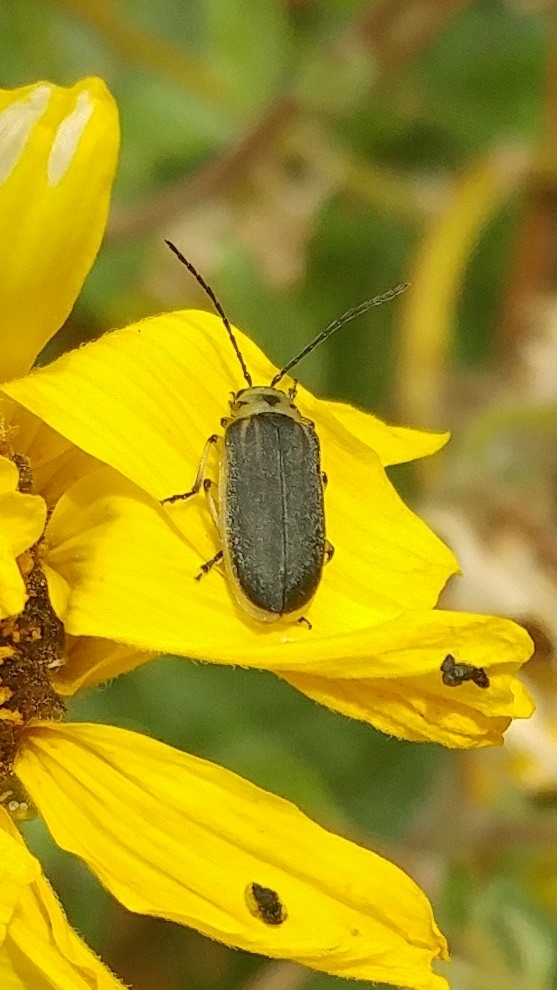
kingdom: Animalia
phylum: Arthropoda
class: Insecta
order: Coleoptera
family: Chrysomelidae
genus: Trirhabda
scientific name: Trirhabda geminata
